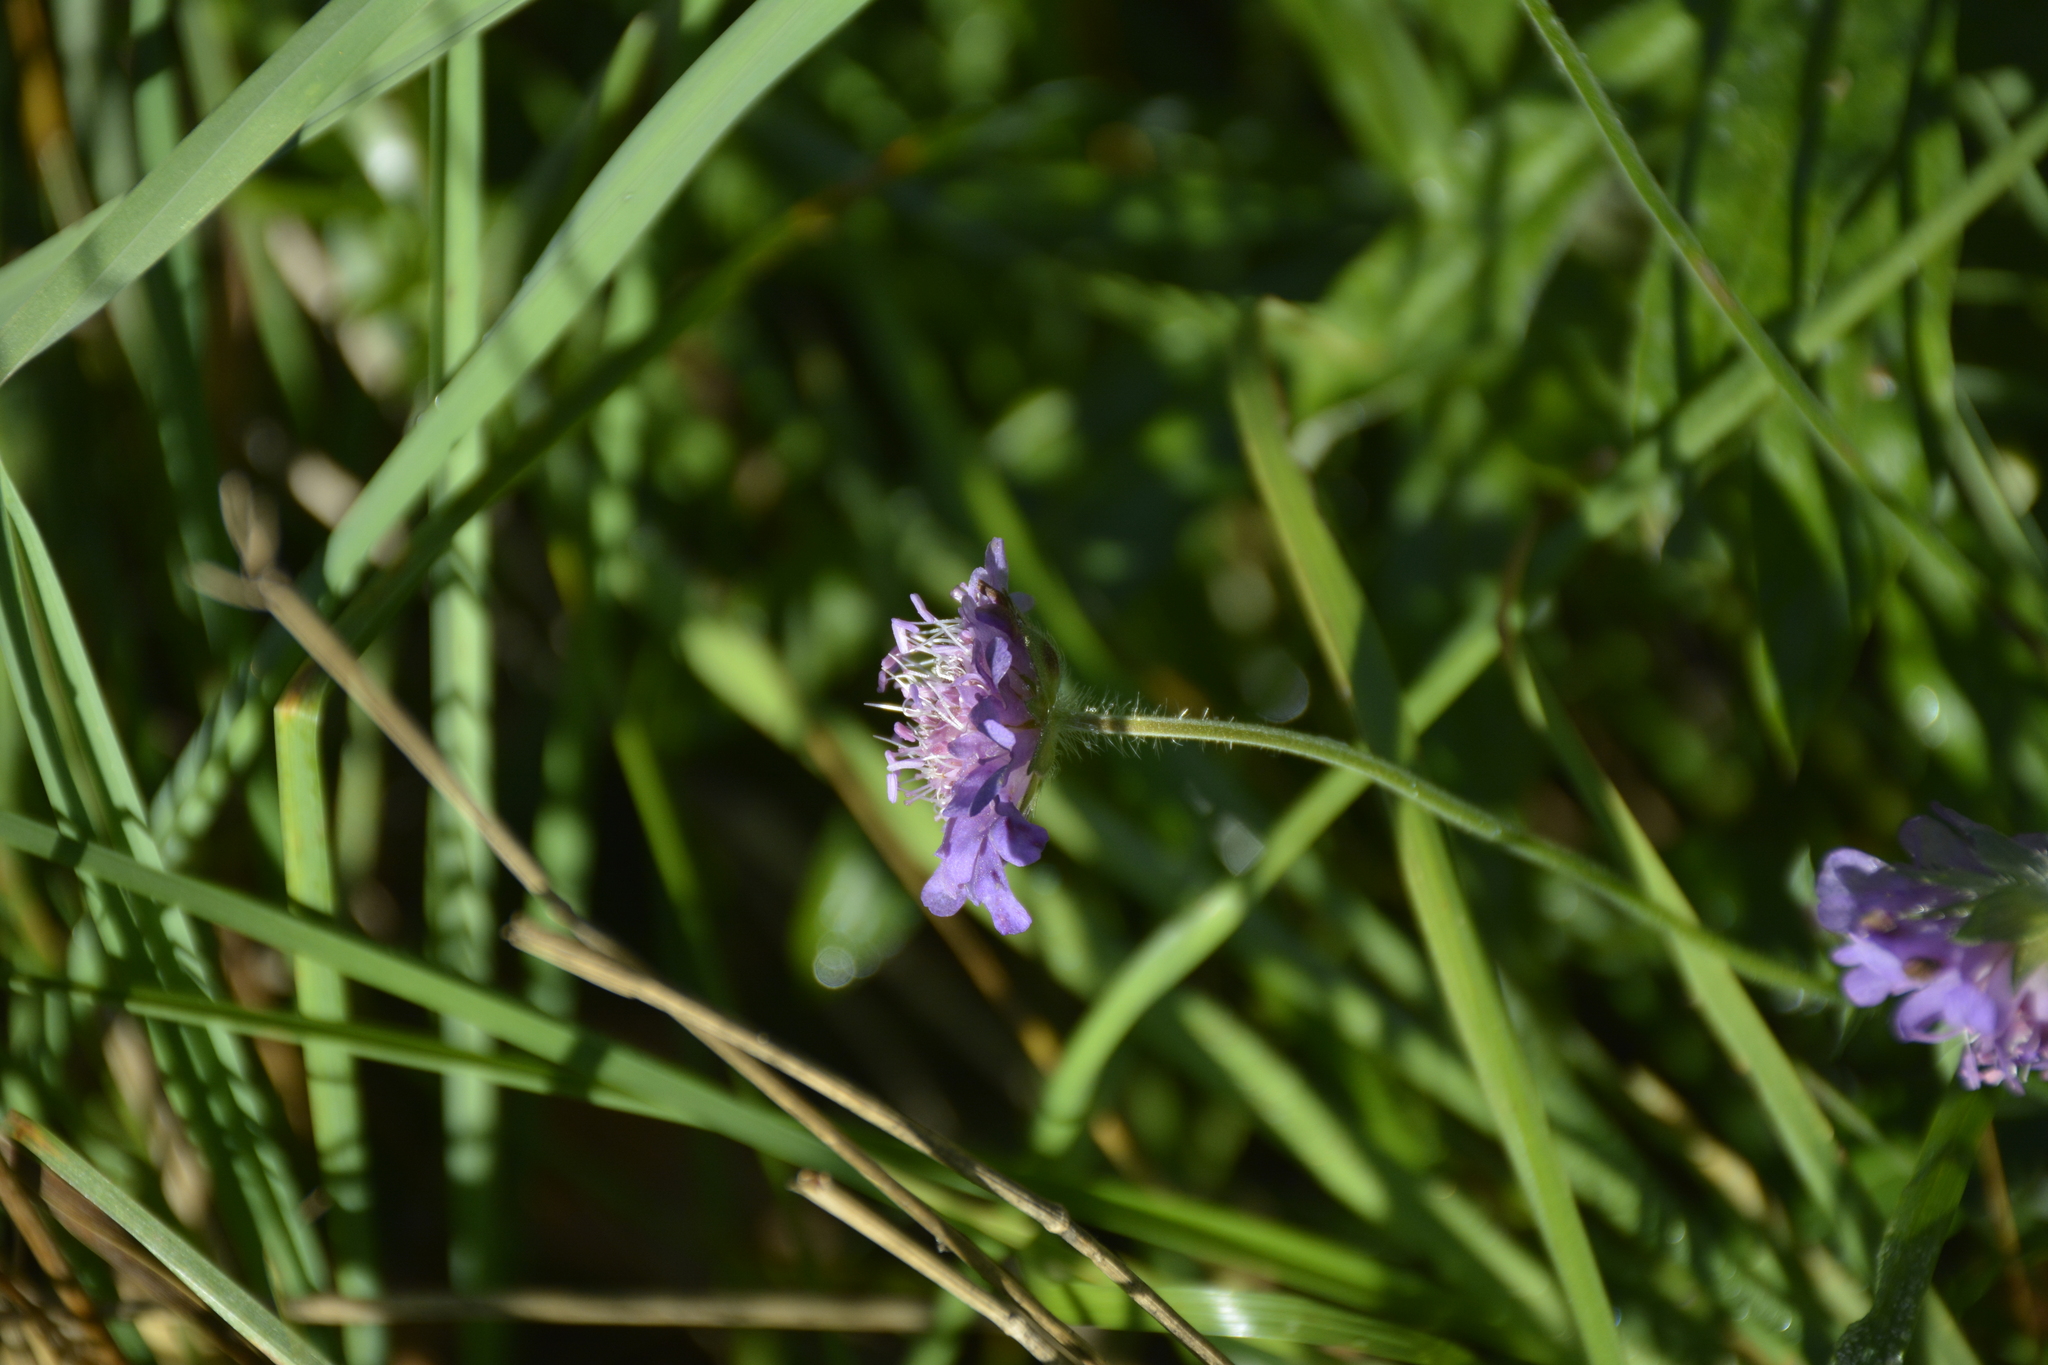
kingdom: Plantae
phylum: Tracheophyta
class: Magnoliopsida
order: Dipsacales
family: Caprifoliaceae
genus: Knautia
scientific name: Knautia arvensis
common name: Field scabiosa
